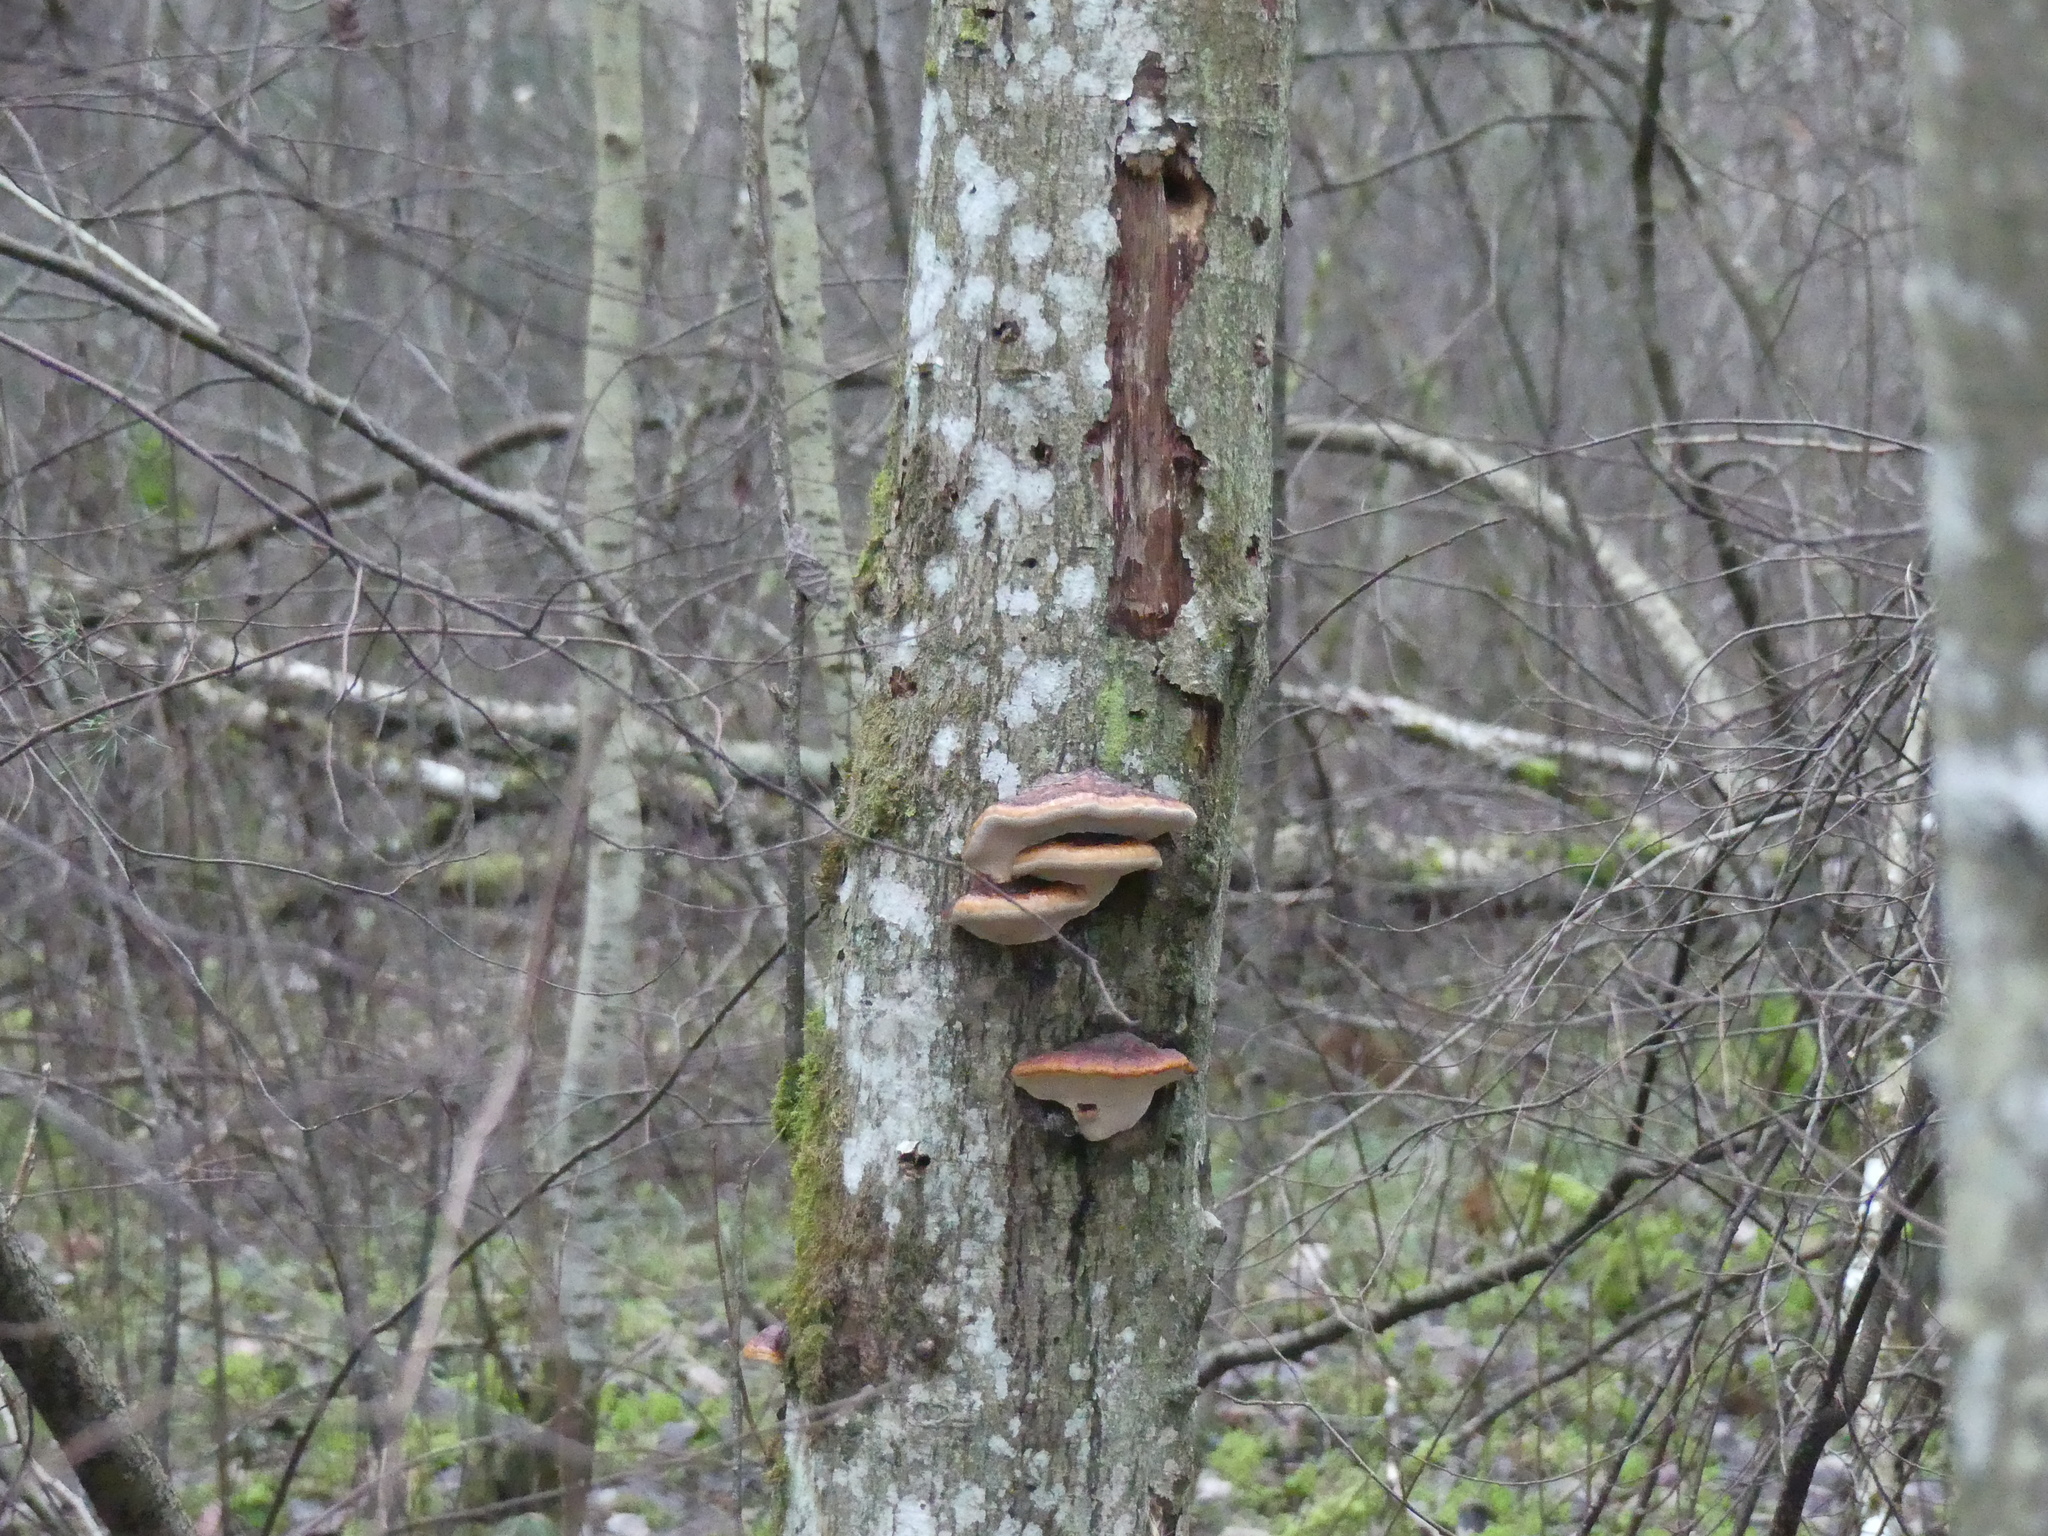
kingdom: Fungi
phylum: Basidiomycota
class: Agaricomycetes
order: Polyporales
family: Fomitopsidaceae
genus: Fomitopsis
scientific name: Fomitopsis pinicola
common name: Red-belted bracket
